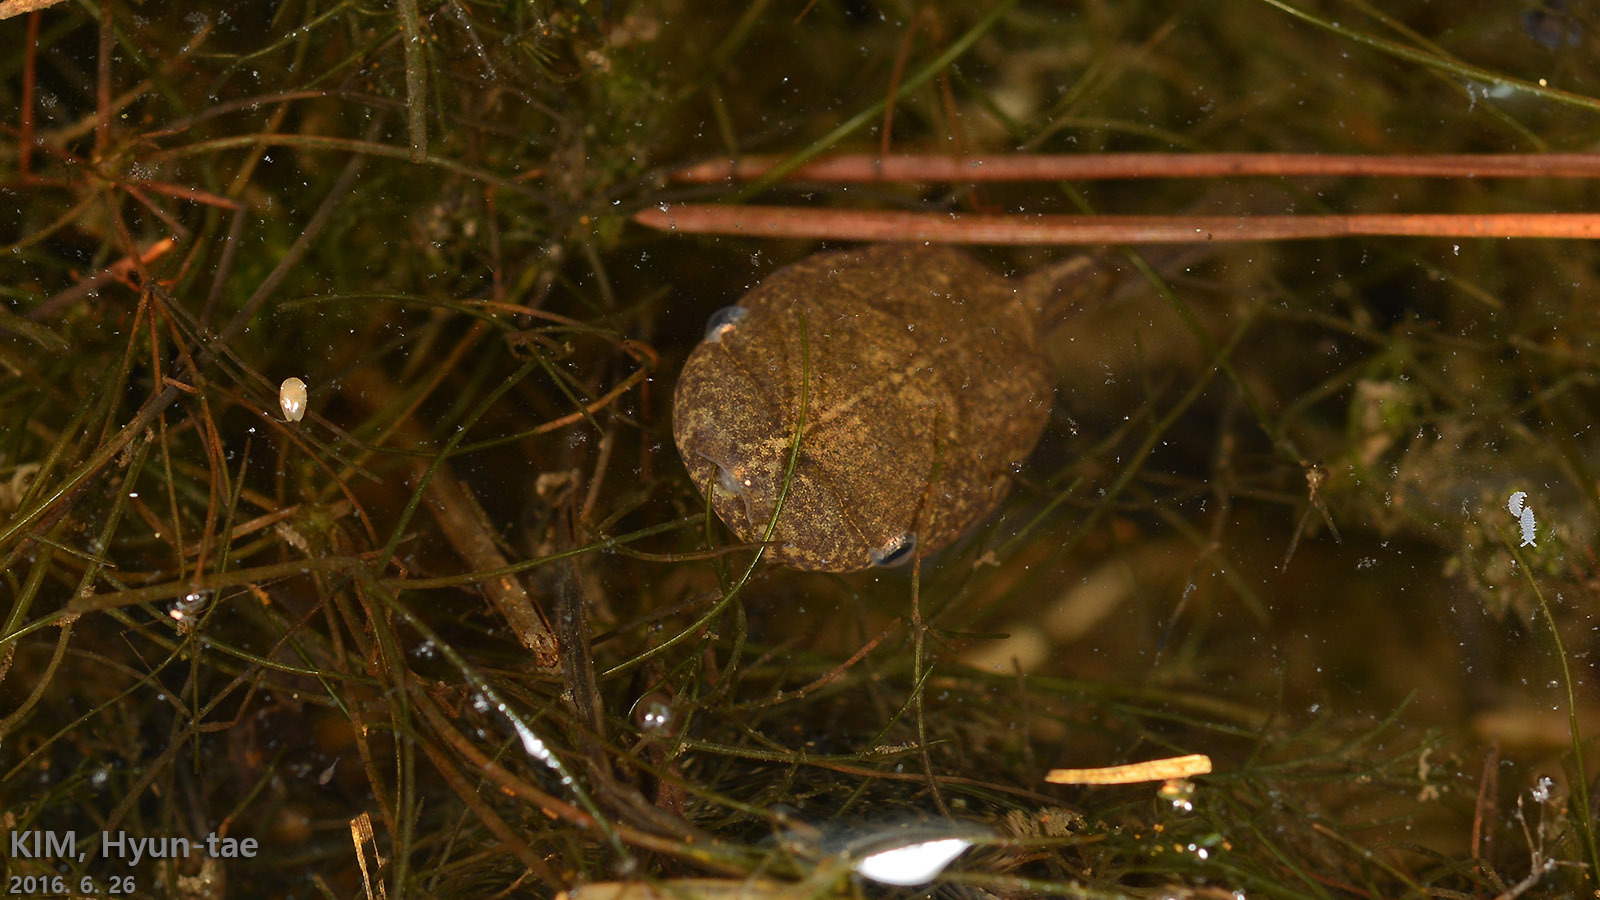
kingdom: Animalia
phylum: Chordata
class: Amphibia
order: Anura
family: Microhylidae
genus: Kaloula
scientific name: Kaloula borealis
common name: Boreal digging frog
